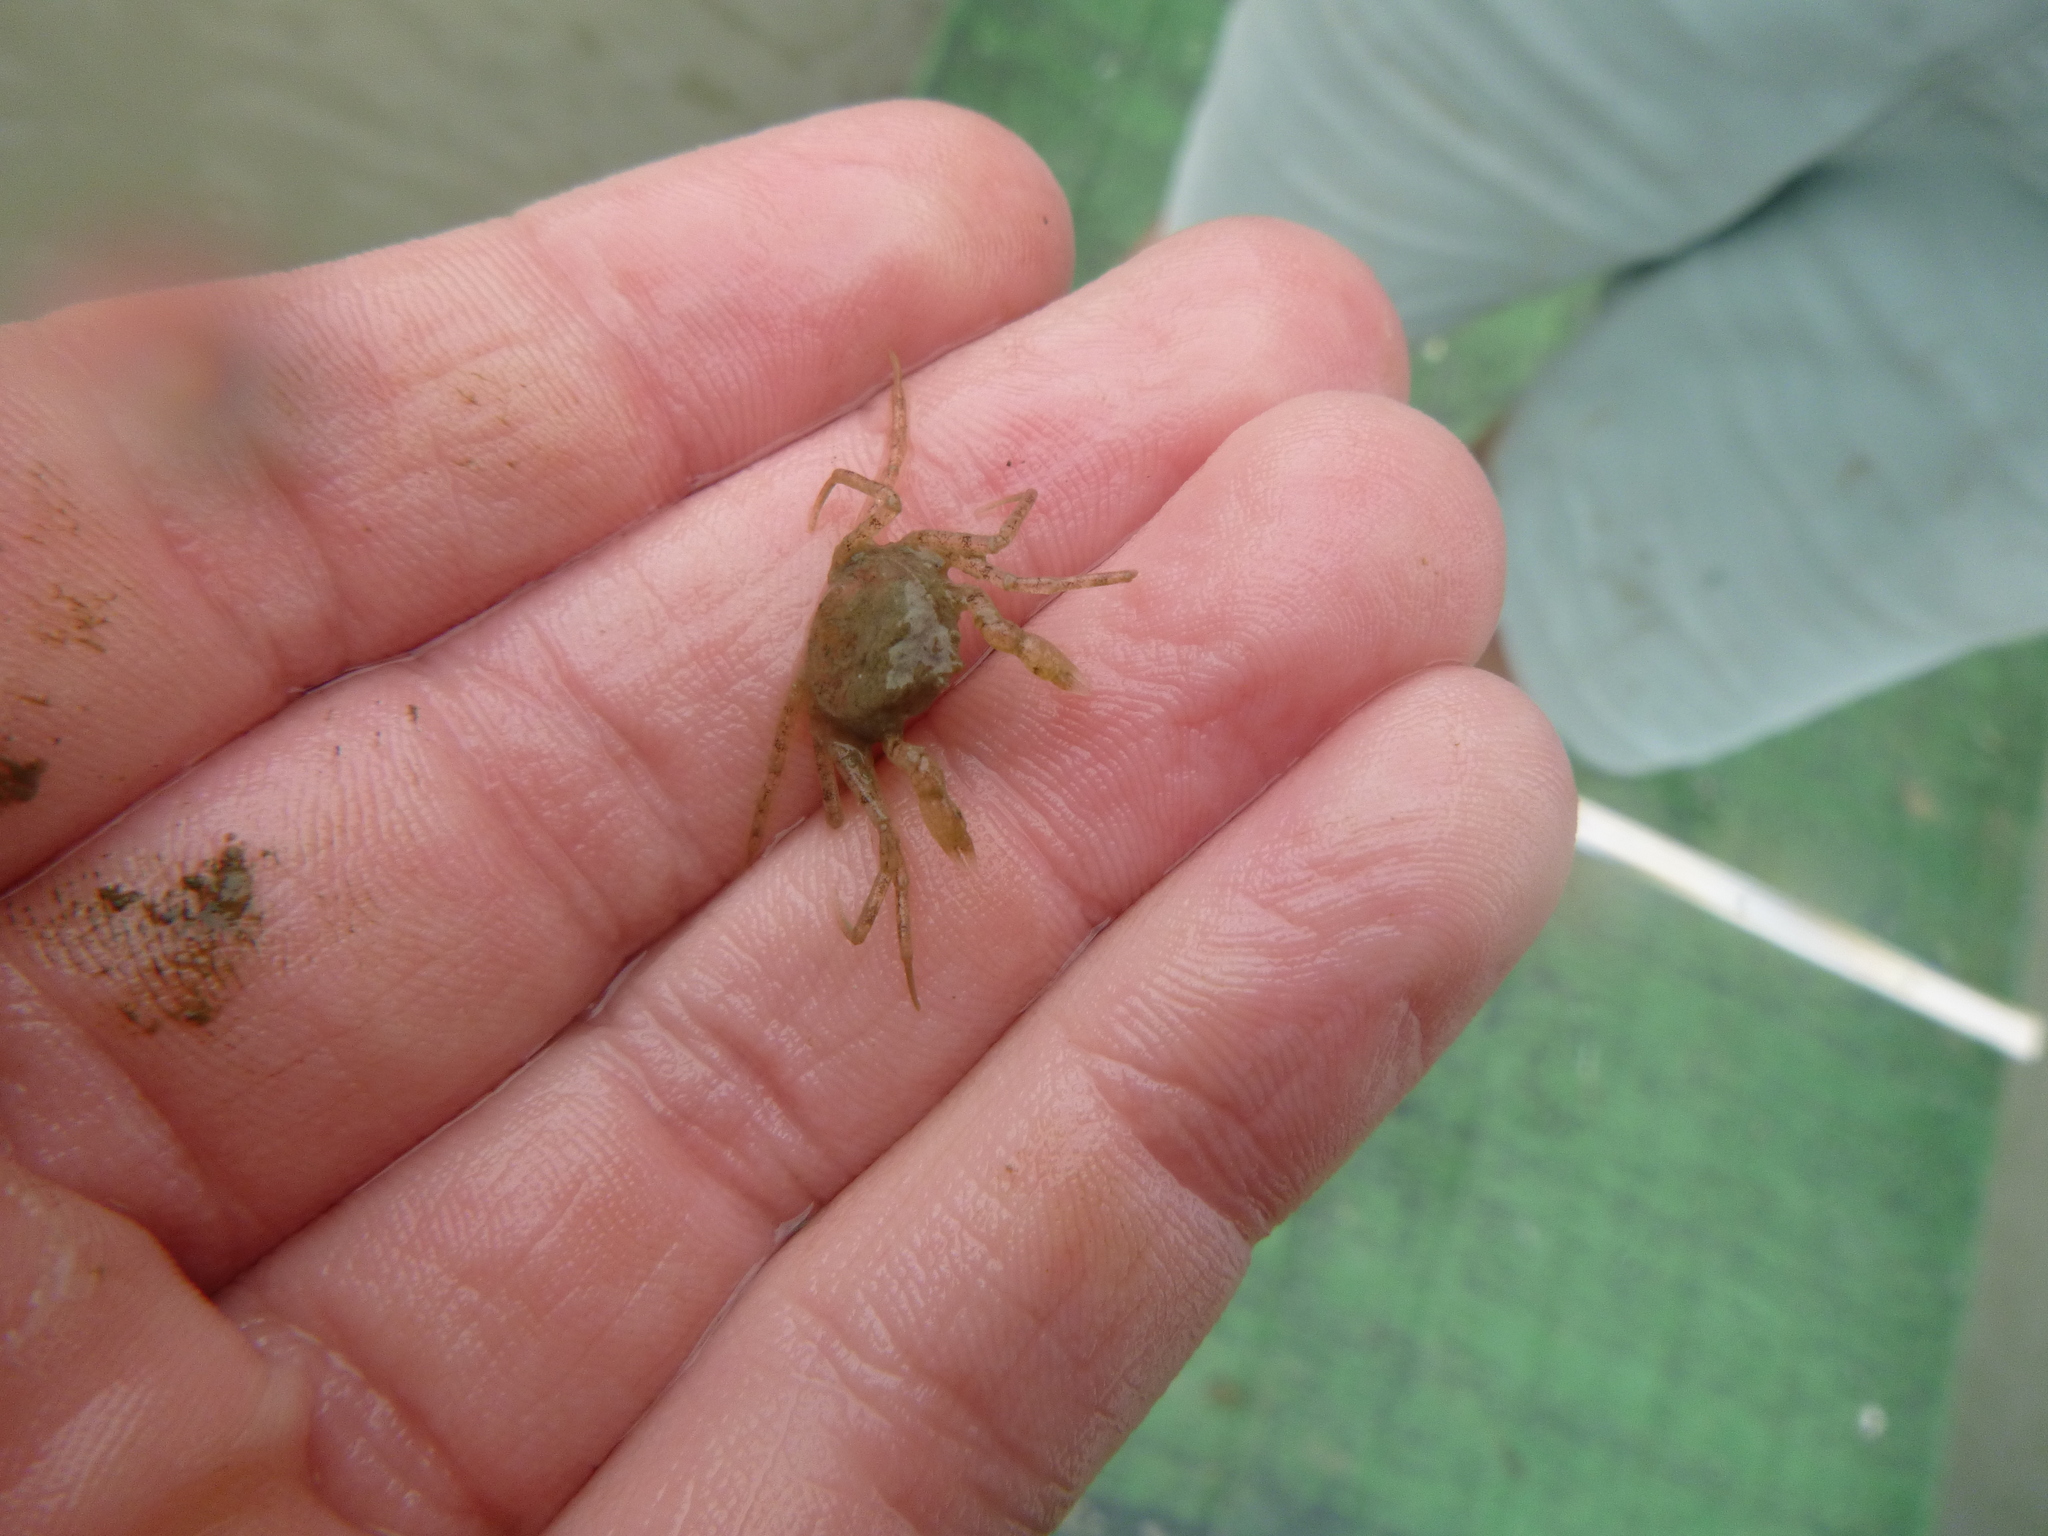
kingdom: Animalia
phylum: Arthropoda
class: Malacostraca
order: Decapoda
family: Hymenosomatidae
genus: Halicarcinus
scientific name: Halicarcinus whitei
